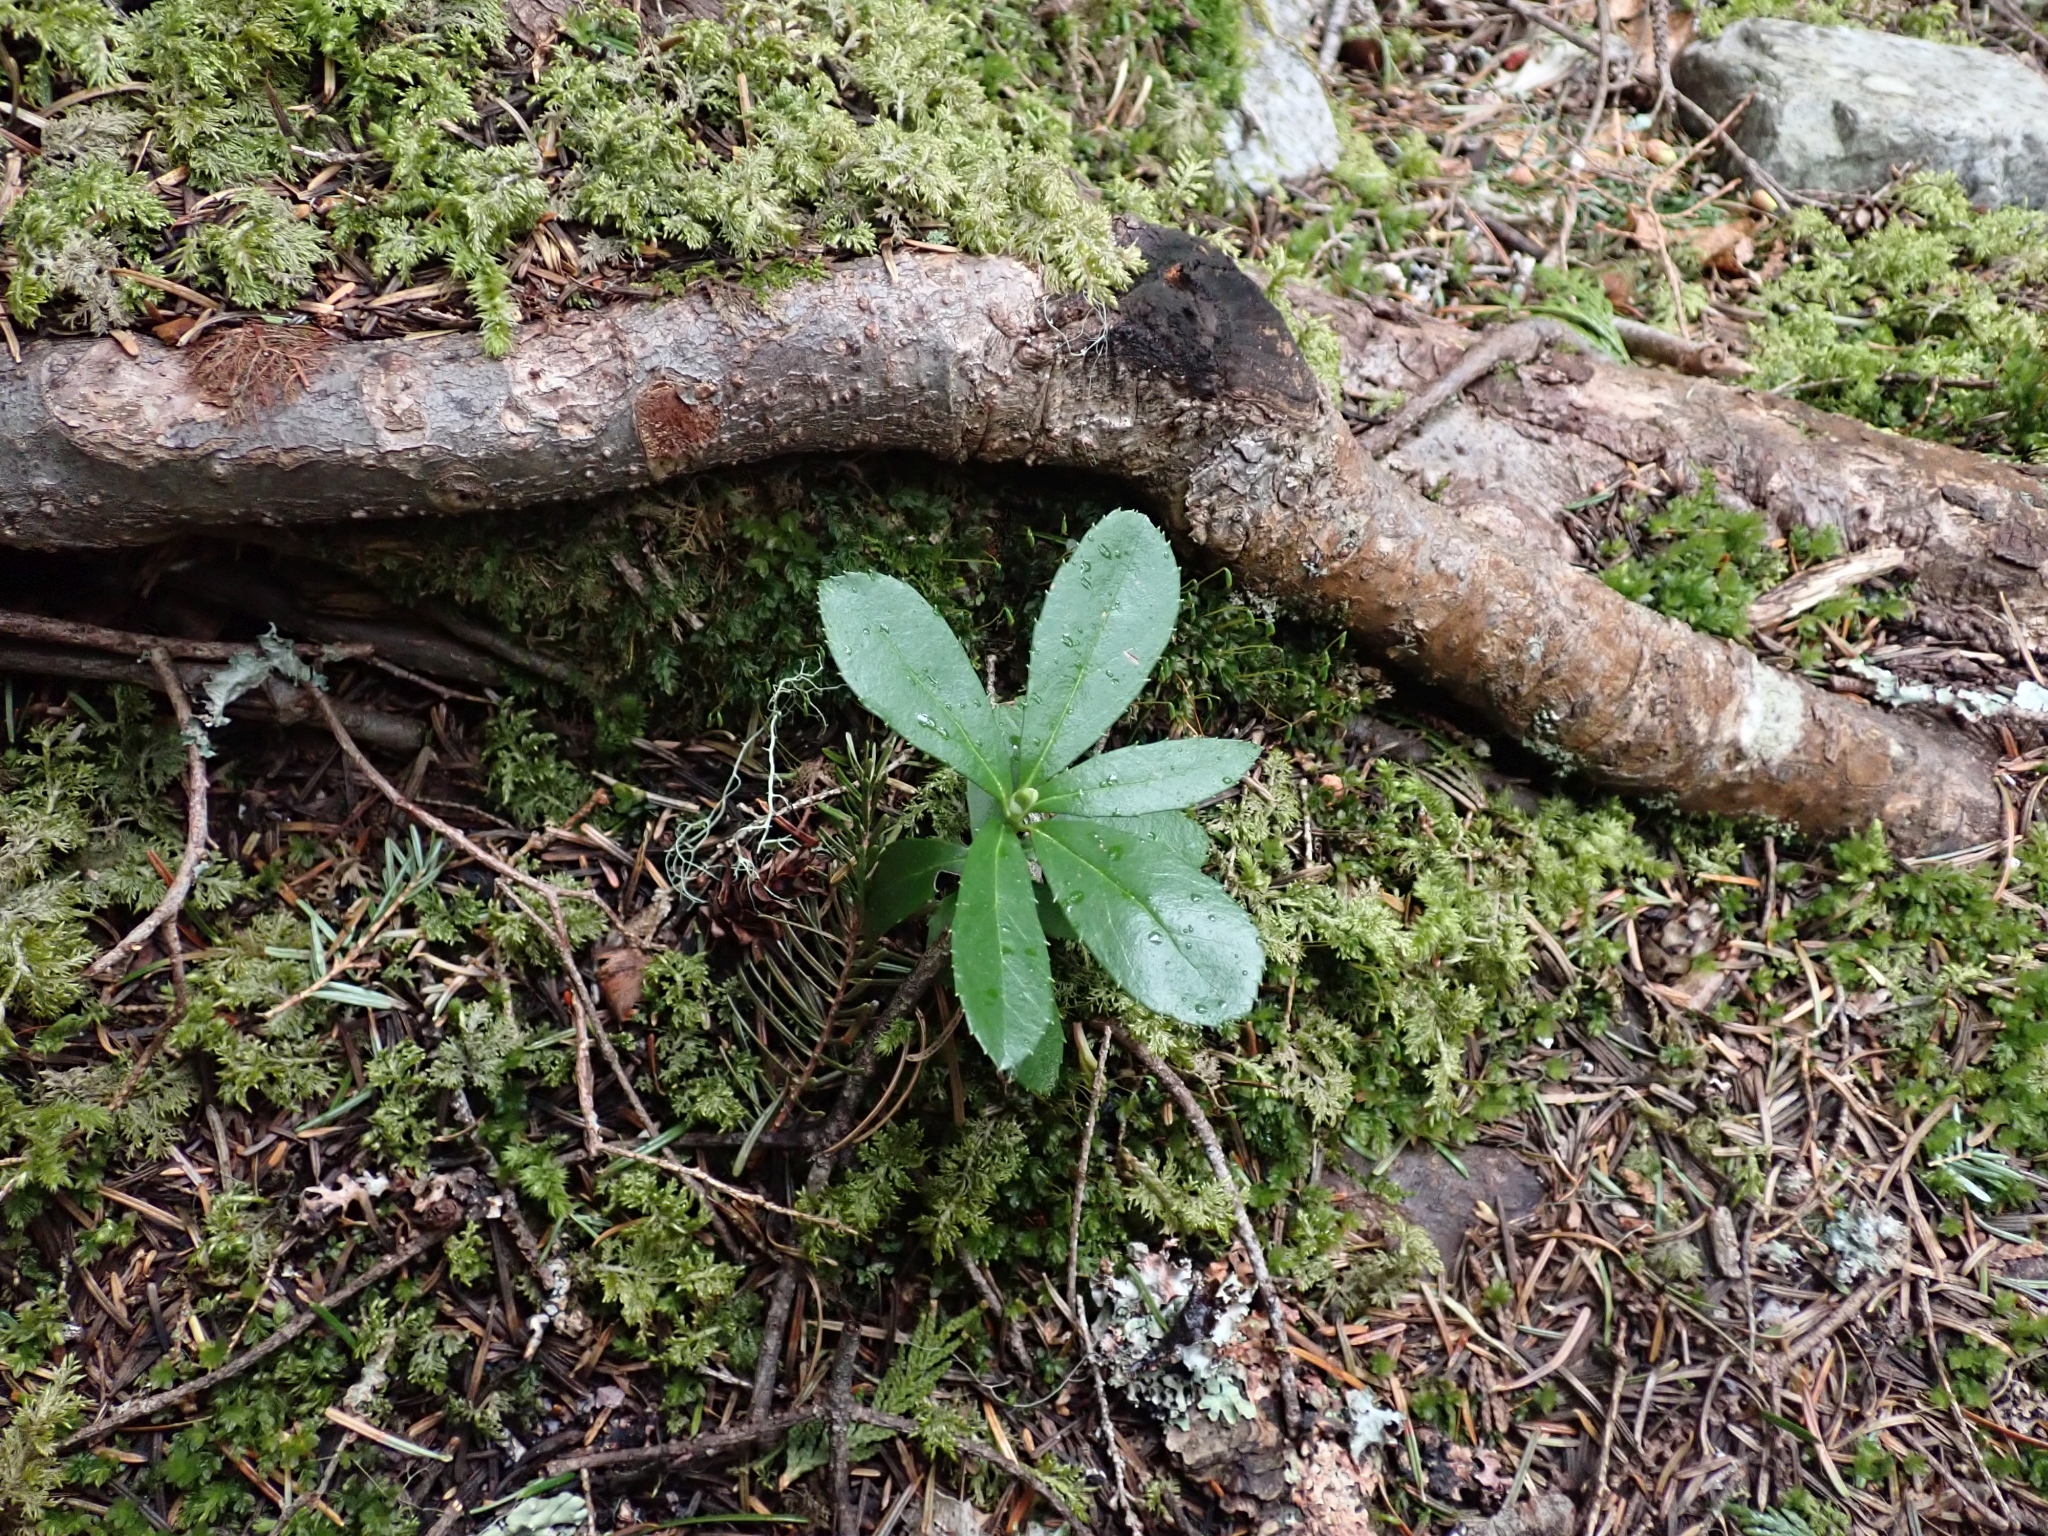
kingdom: Plantae
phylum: Tracheophyta
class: Magnoliopsida
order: Ericales
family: Ericaceae
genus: Chimaphila
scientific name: Chimaphila umbellata
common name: Pipsissewa
